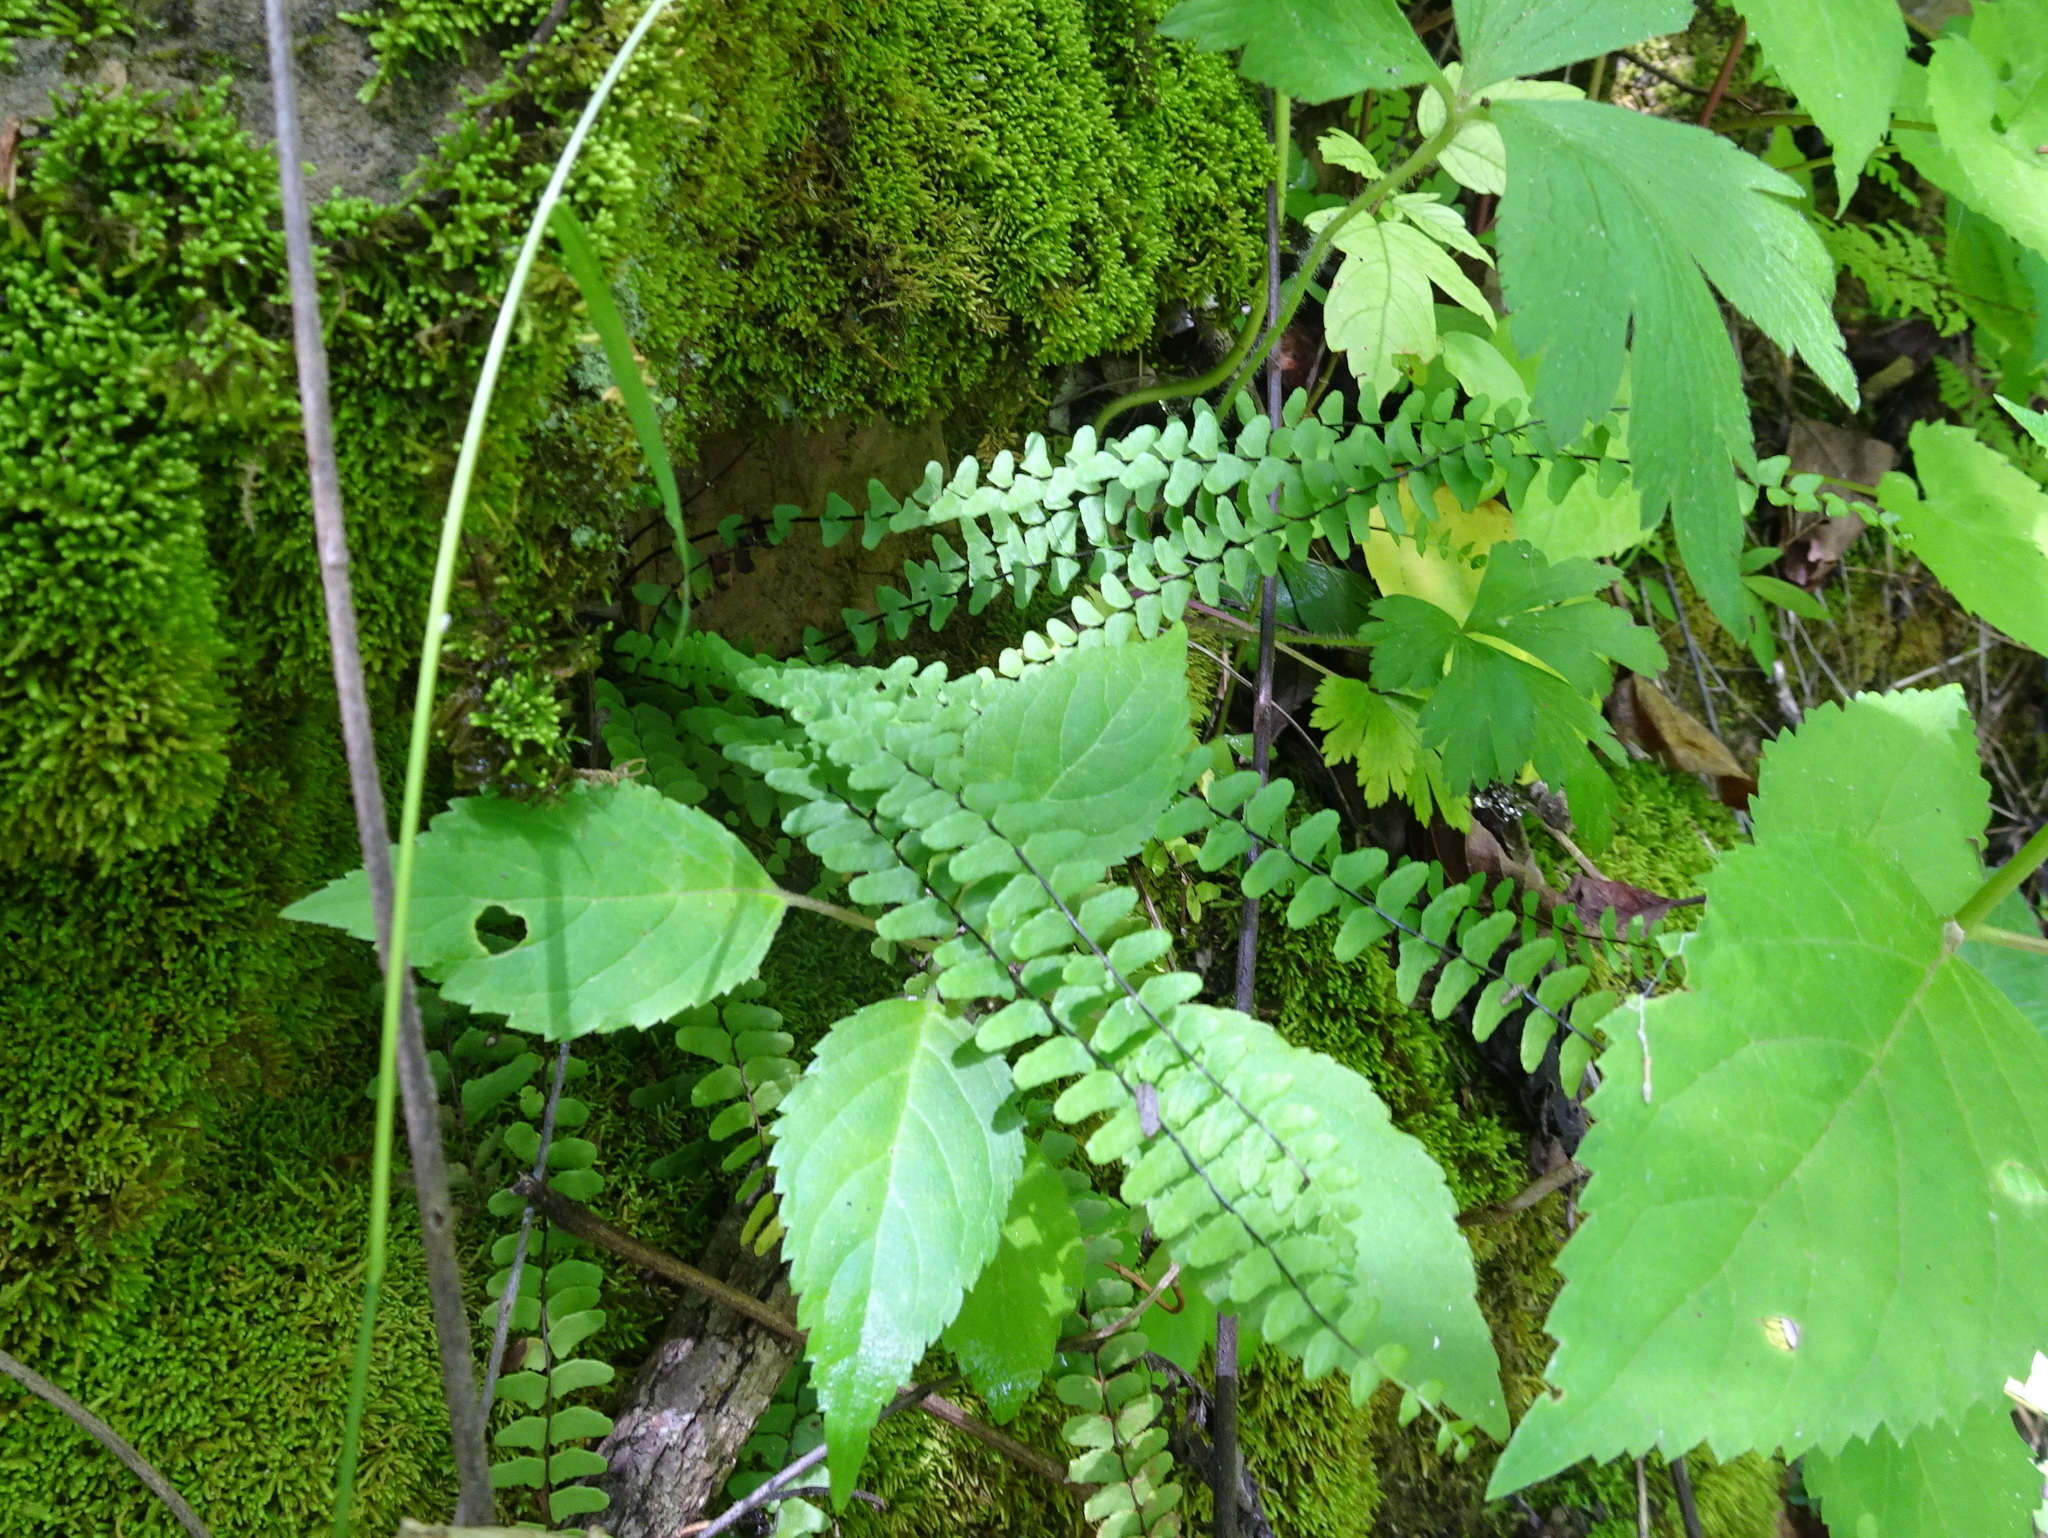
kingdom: Plantae
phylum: Tracheophyta
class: Polypodiopsida
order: Polypodiales
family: Aspleniaceae
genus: Asplenium
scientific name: Asplenium resiliens
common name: Blackstem spleenwort
